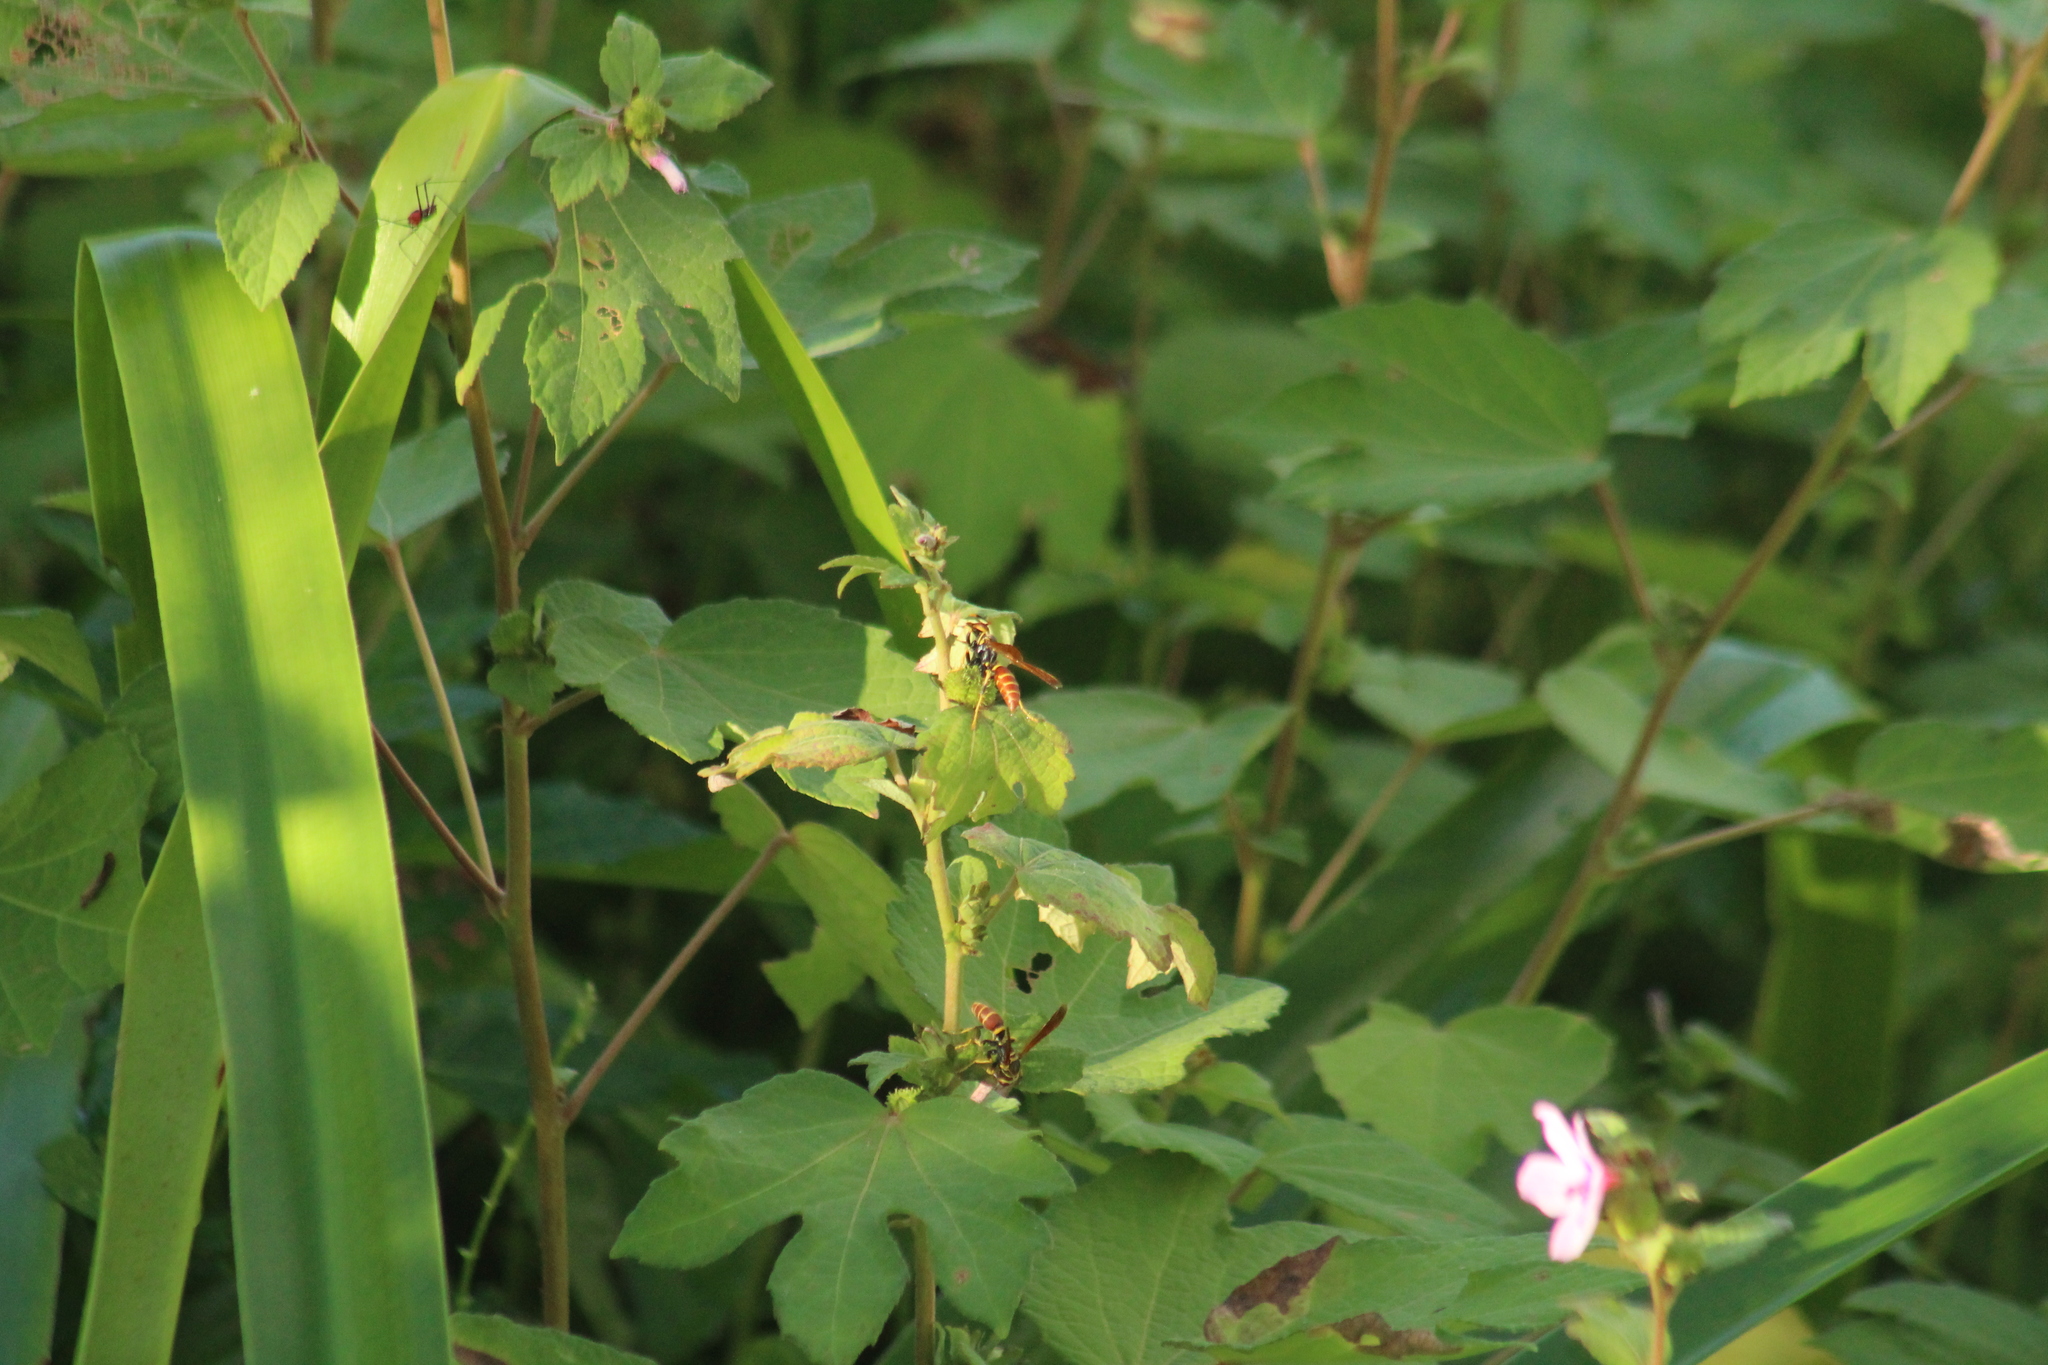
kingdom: Animalia
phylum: Arthropoda
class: Insecta
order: Hymenoptera
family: Eumenidae
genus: Polistes
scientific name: Polistes crinitus
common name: Jack spaniard
